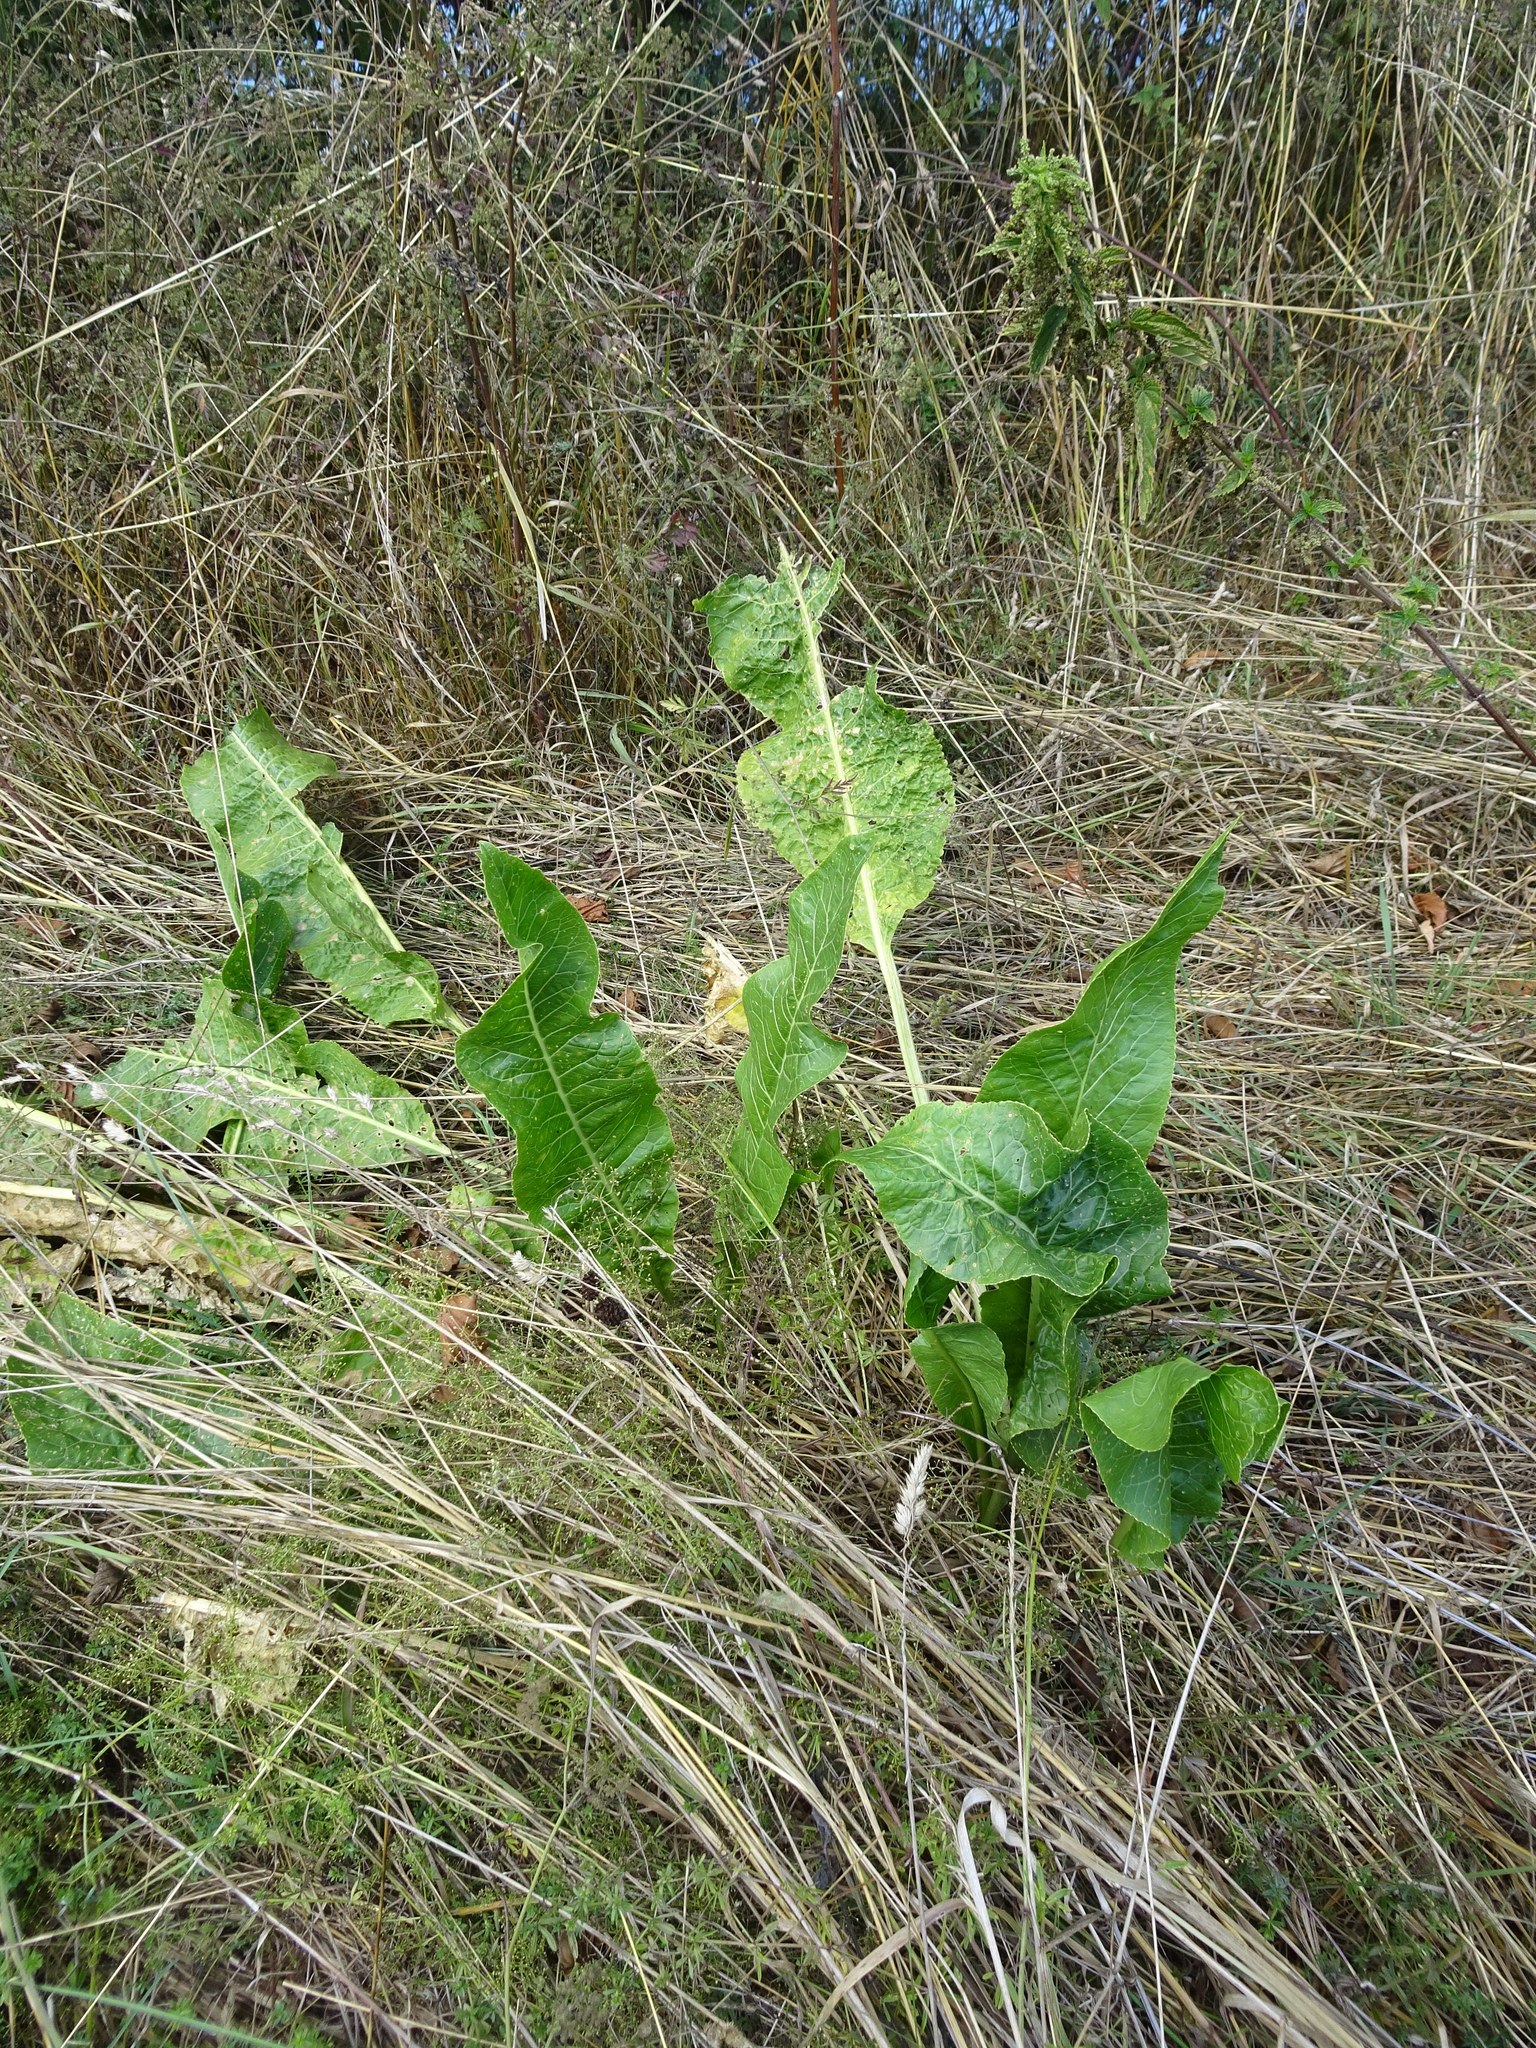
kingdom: Plantae
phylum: Tracheophyta
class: Magnoliopsida
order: Brassicales
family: Brassicaceae
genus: Armoracia
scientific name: Armoracia rusticana
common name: Horseradish
